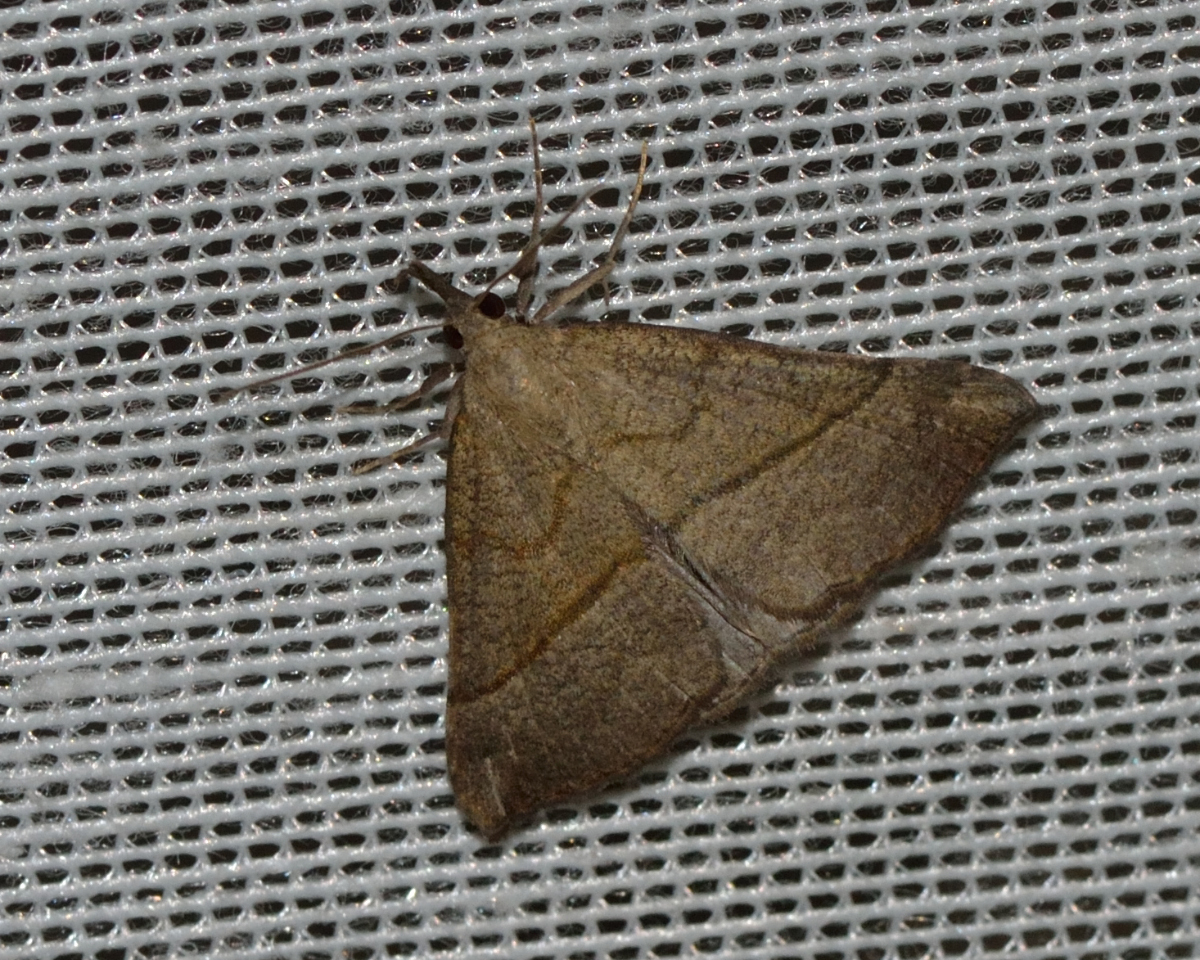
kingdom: Animalia
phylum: Arthropoda
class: Insecta
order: Lepidoptera
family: Erebidae
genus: Hypena
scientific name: Hypena proboscidalis
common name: Snout
